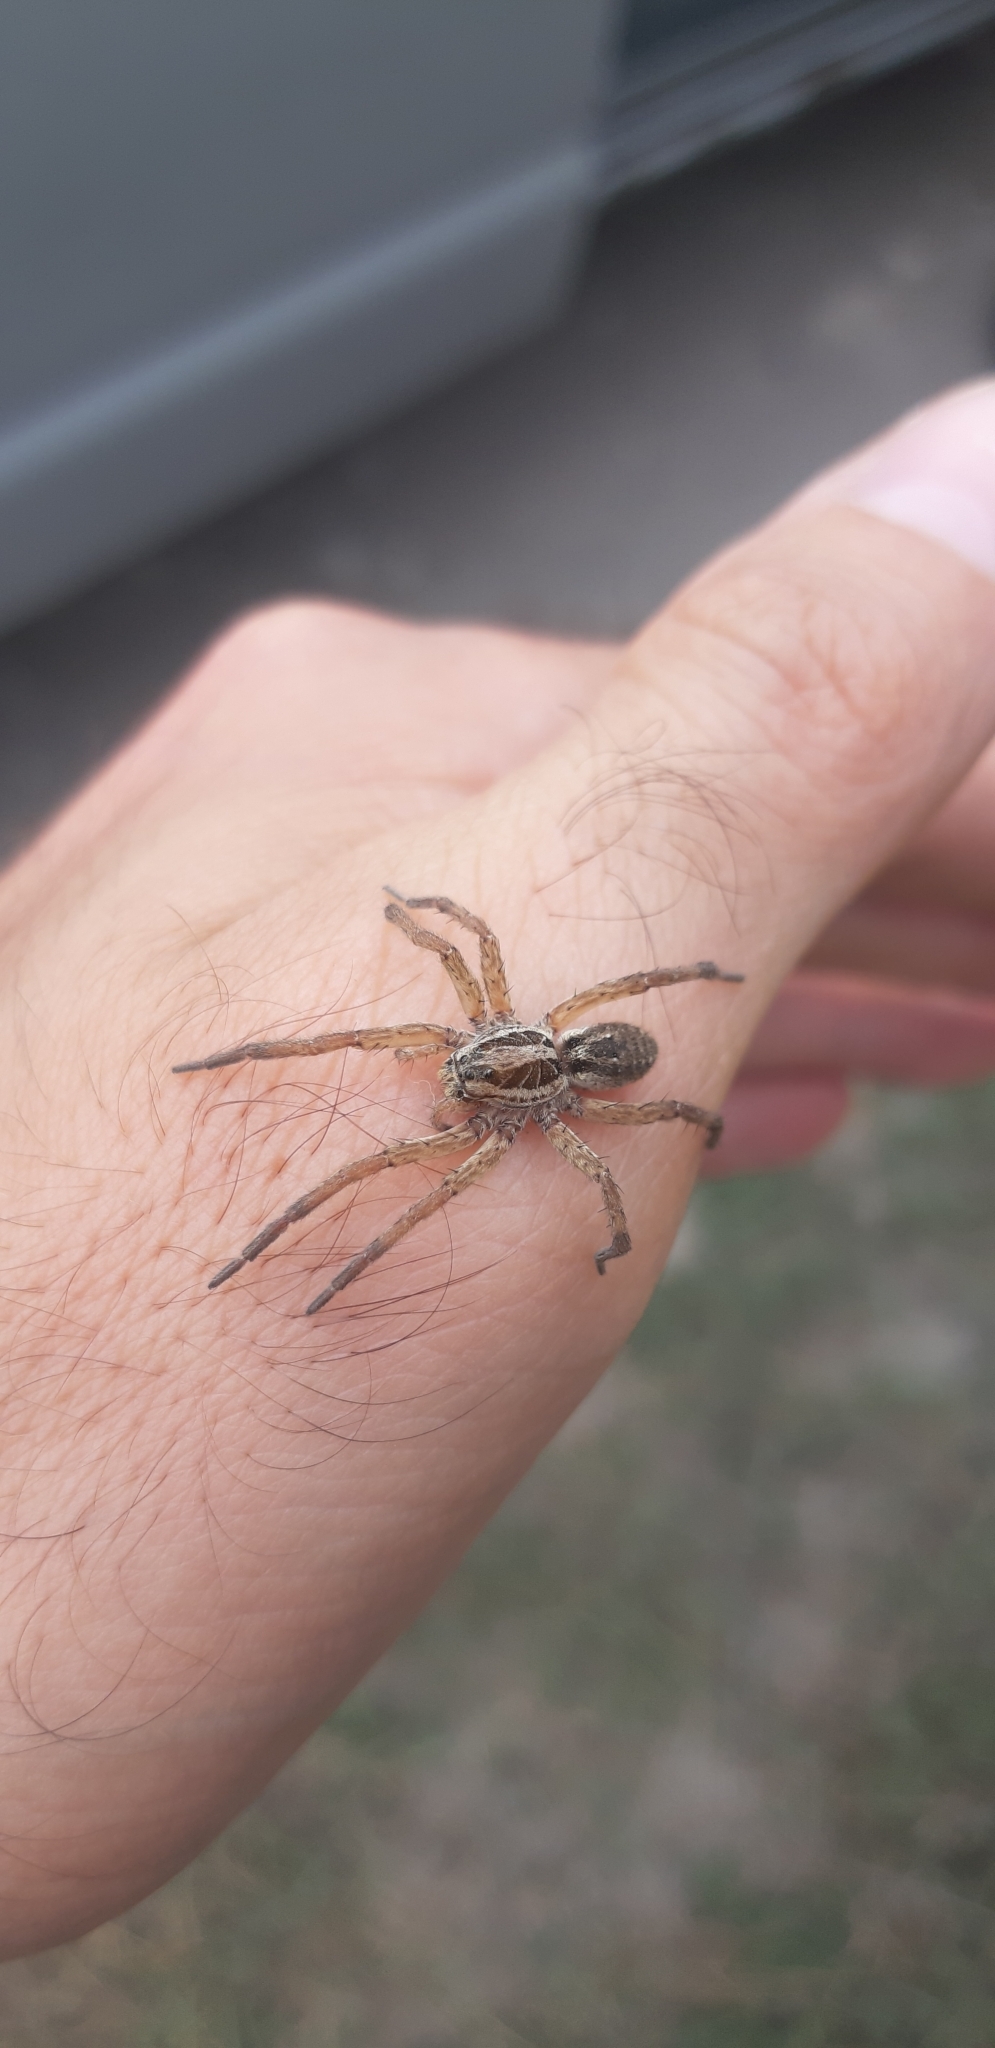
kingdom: Animalia
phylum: Arthropoda
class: Arachnida
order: Araneae
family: Lycosidae
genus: Hogna
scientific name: Hogna radiata
